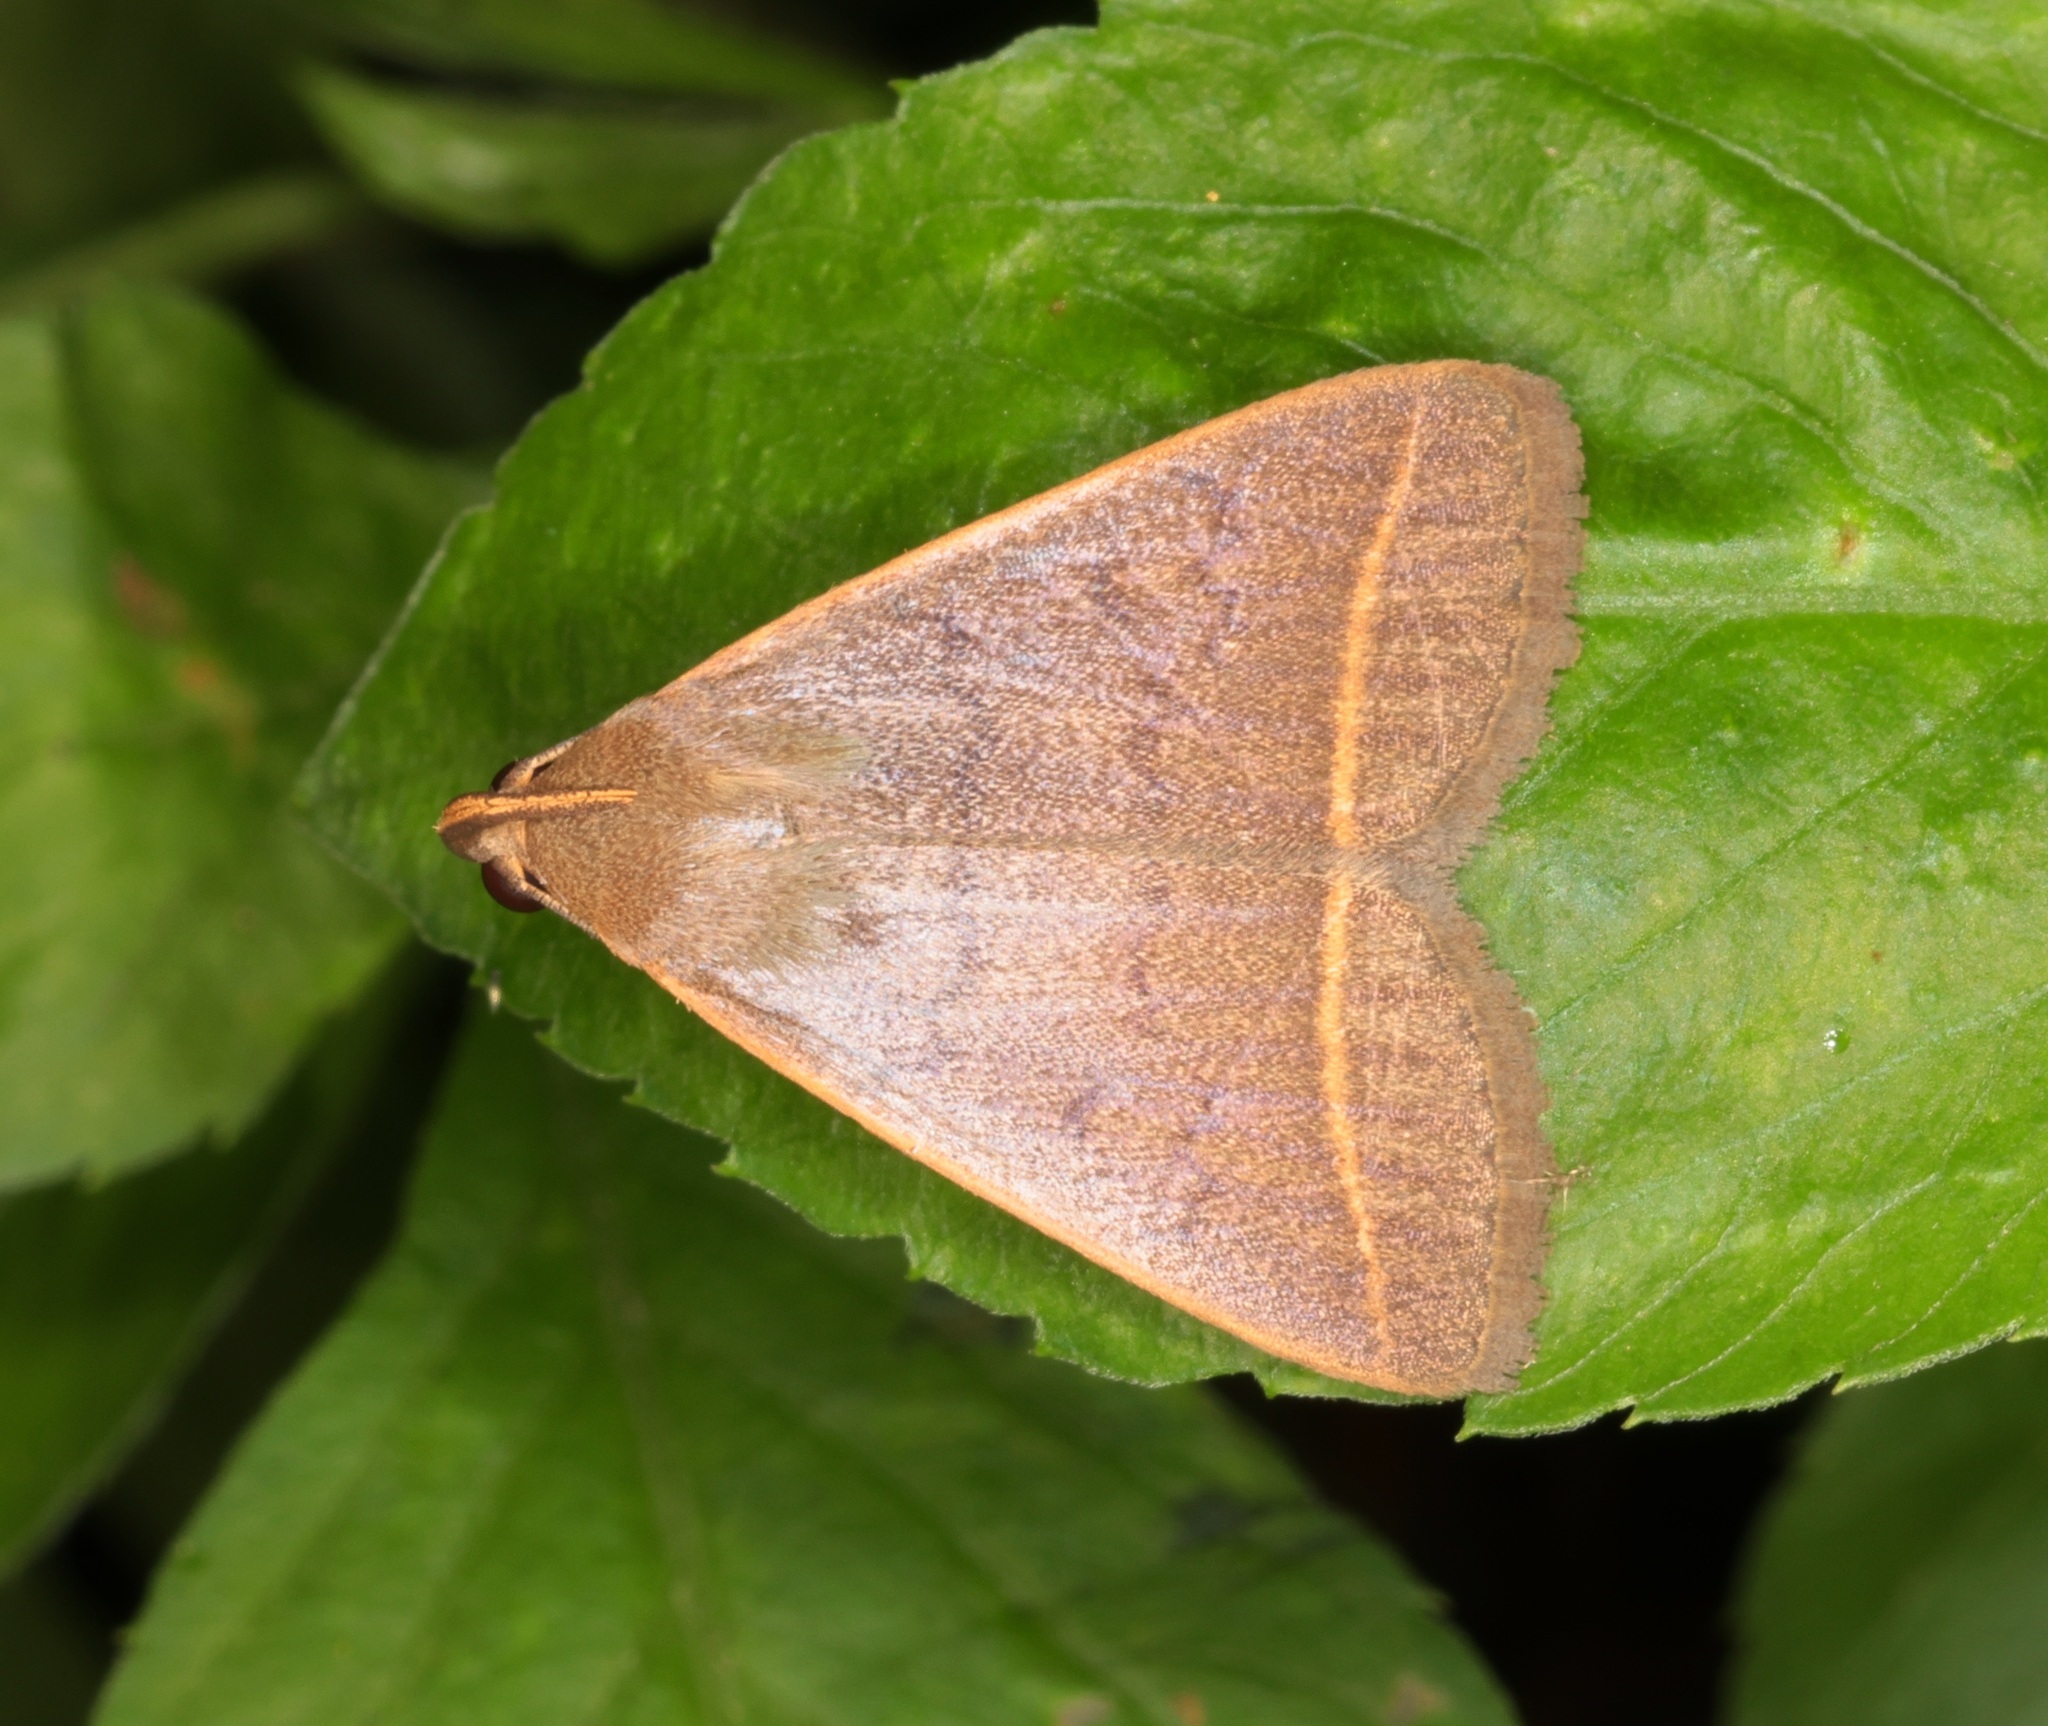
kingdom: Animalia
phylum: Arthropoda
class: Insecta
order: Lepidoptera
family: Erebidae
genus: Simplicia
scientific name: Simplicia cornicalis
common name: Tiki hut litter moth
